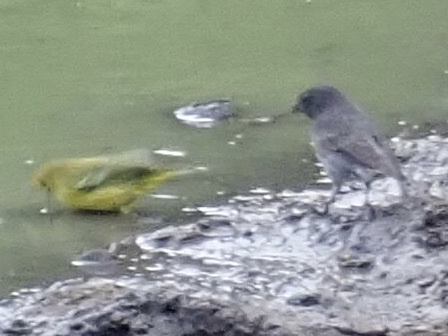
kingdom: Animalia
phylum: Chordata
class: Aves
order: Passeriformes
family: Parulidae
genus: Setophaga
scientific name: Setophaga petechia
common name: Yellow warbler
